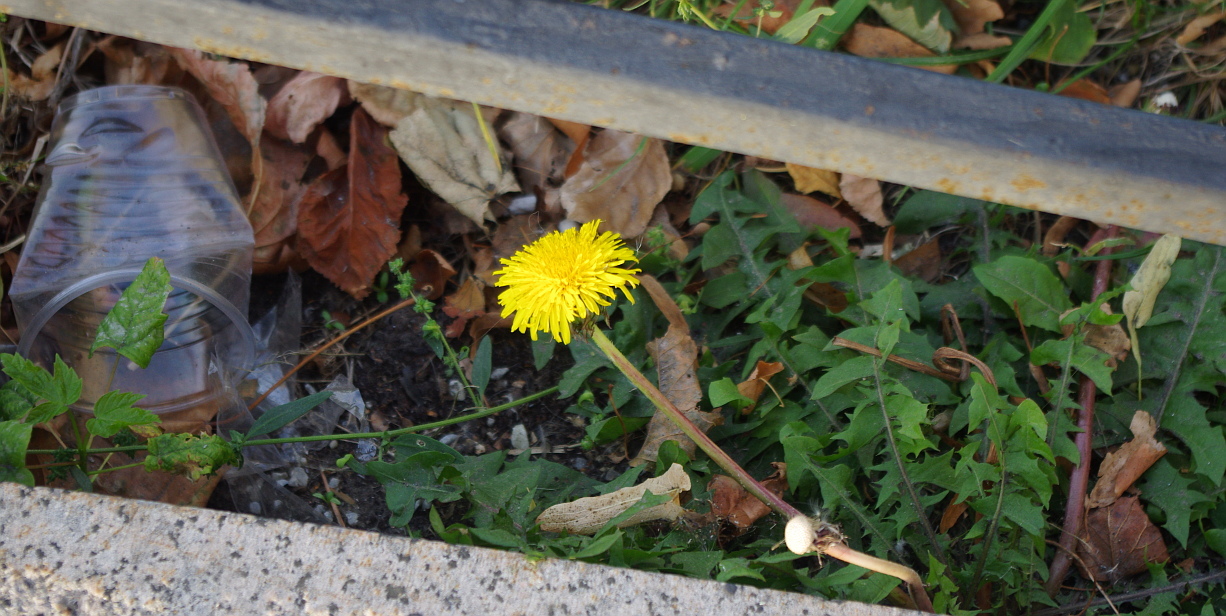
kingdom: Plantae
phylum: Tracheophyta
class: Magnoliopsida
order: Asterales
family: Asteraceae
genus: Taraxacum
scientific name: Taraxacum officinale
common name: Common dandelion
